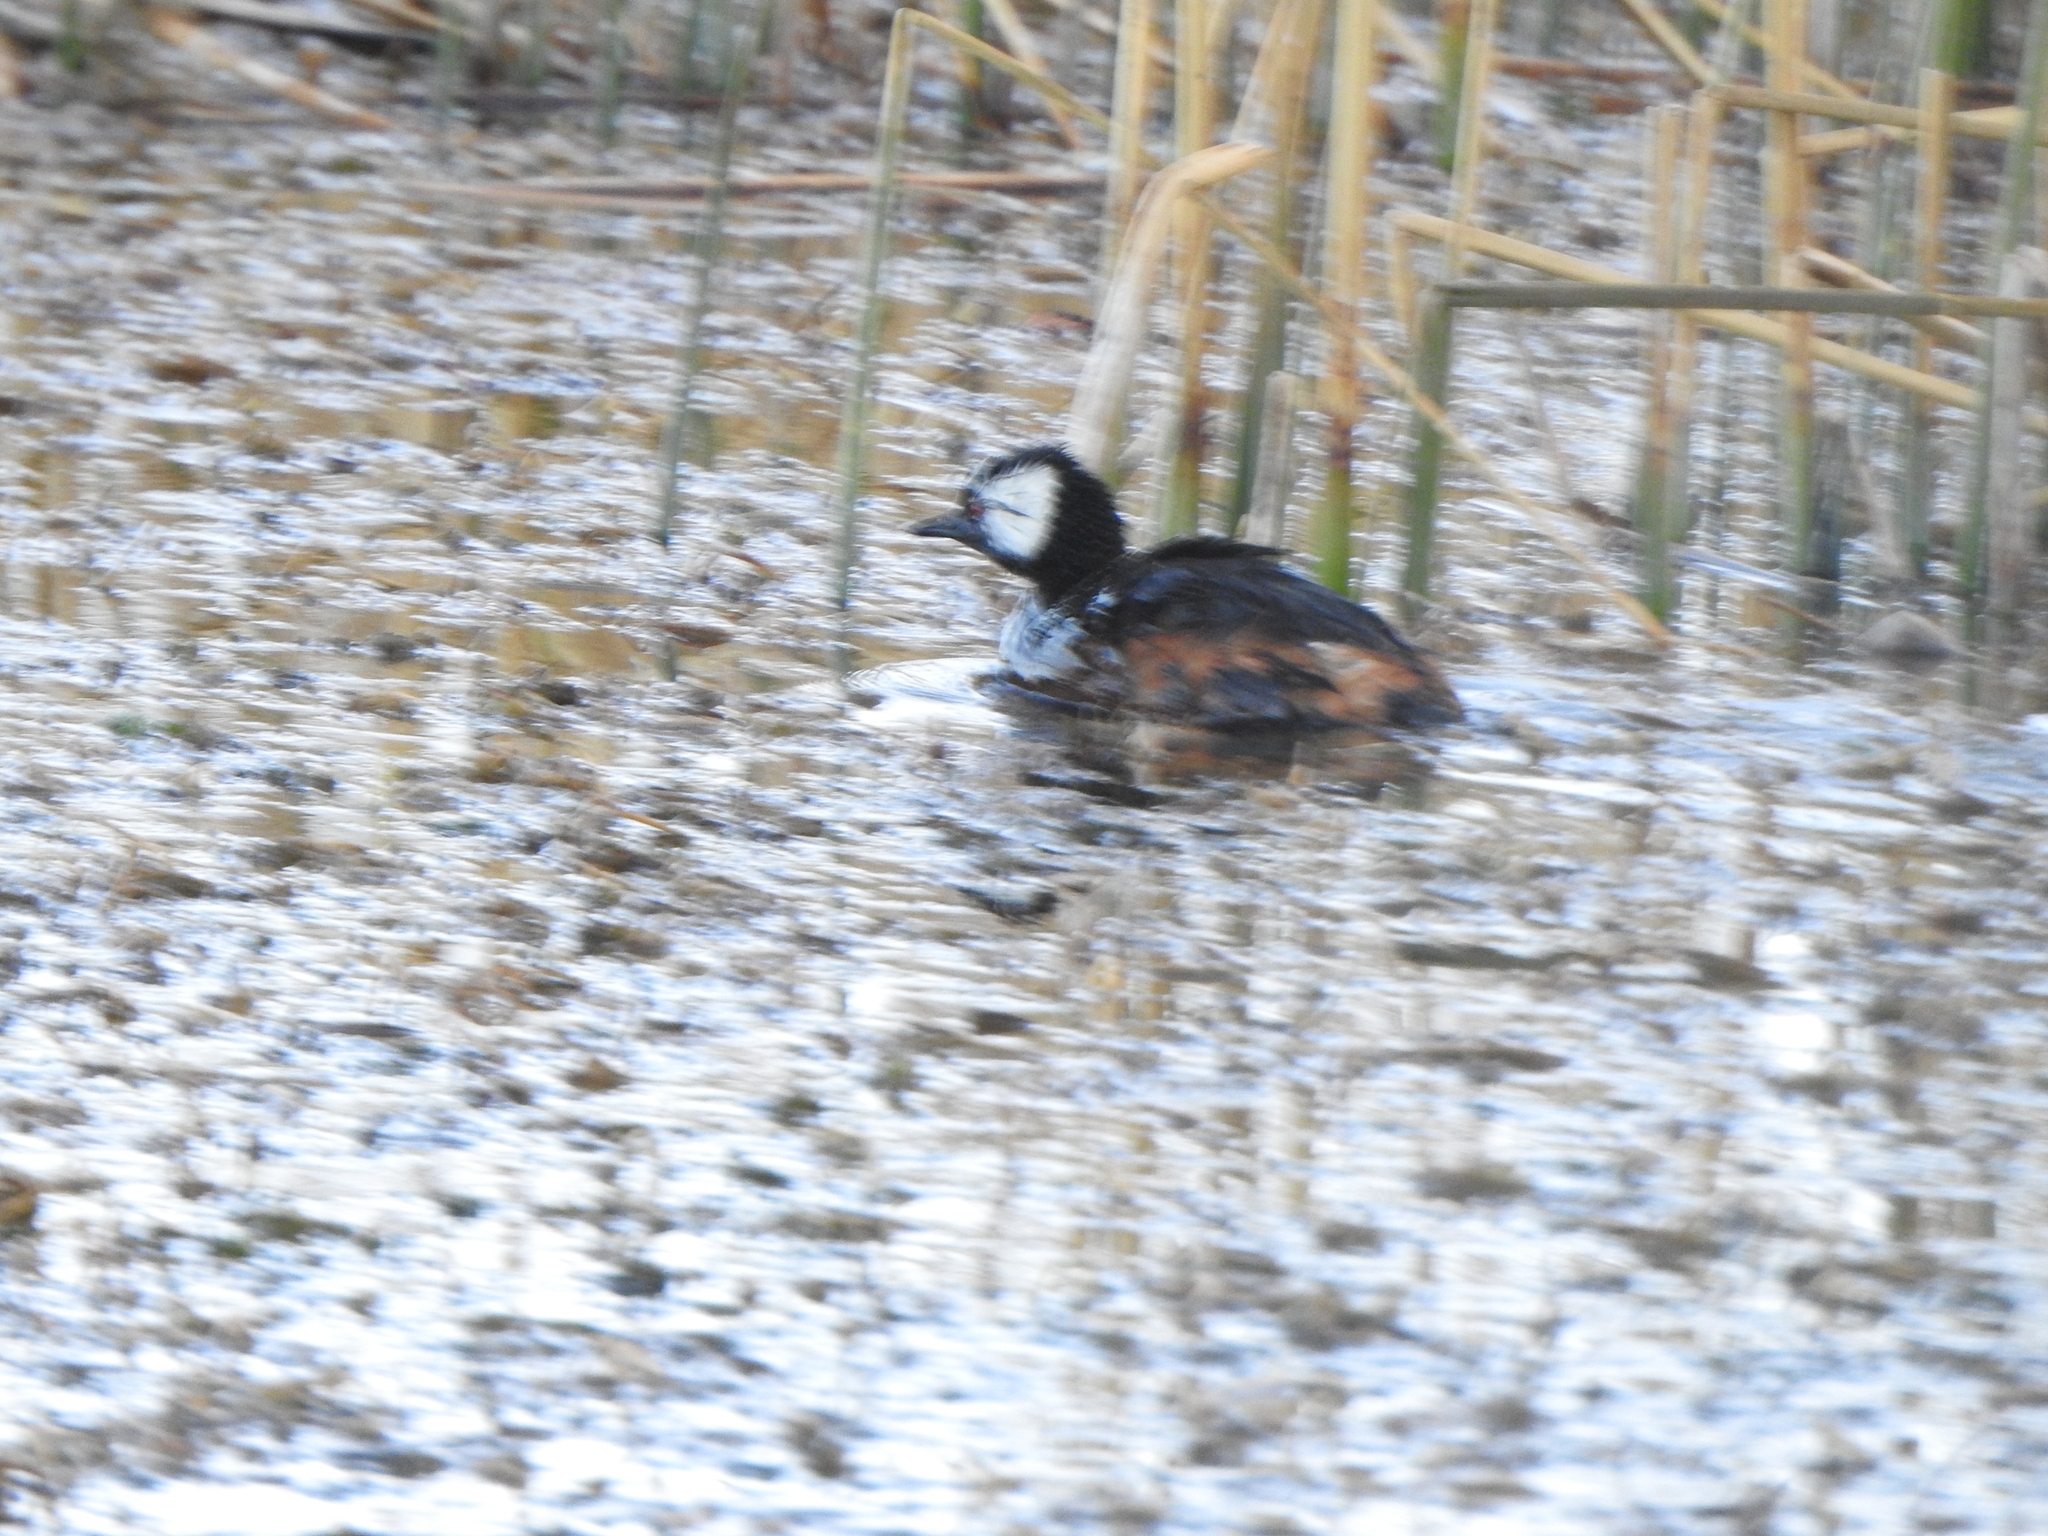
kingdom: Animalia
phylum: Chordata
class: Aves
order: Podicipediformes
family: Podicipedidae
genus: Rollandia
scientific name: Rollandia rolland
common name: White-tufted grebe
